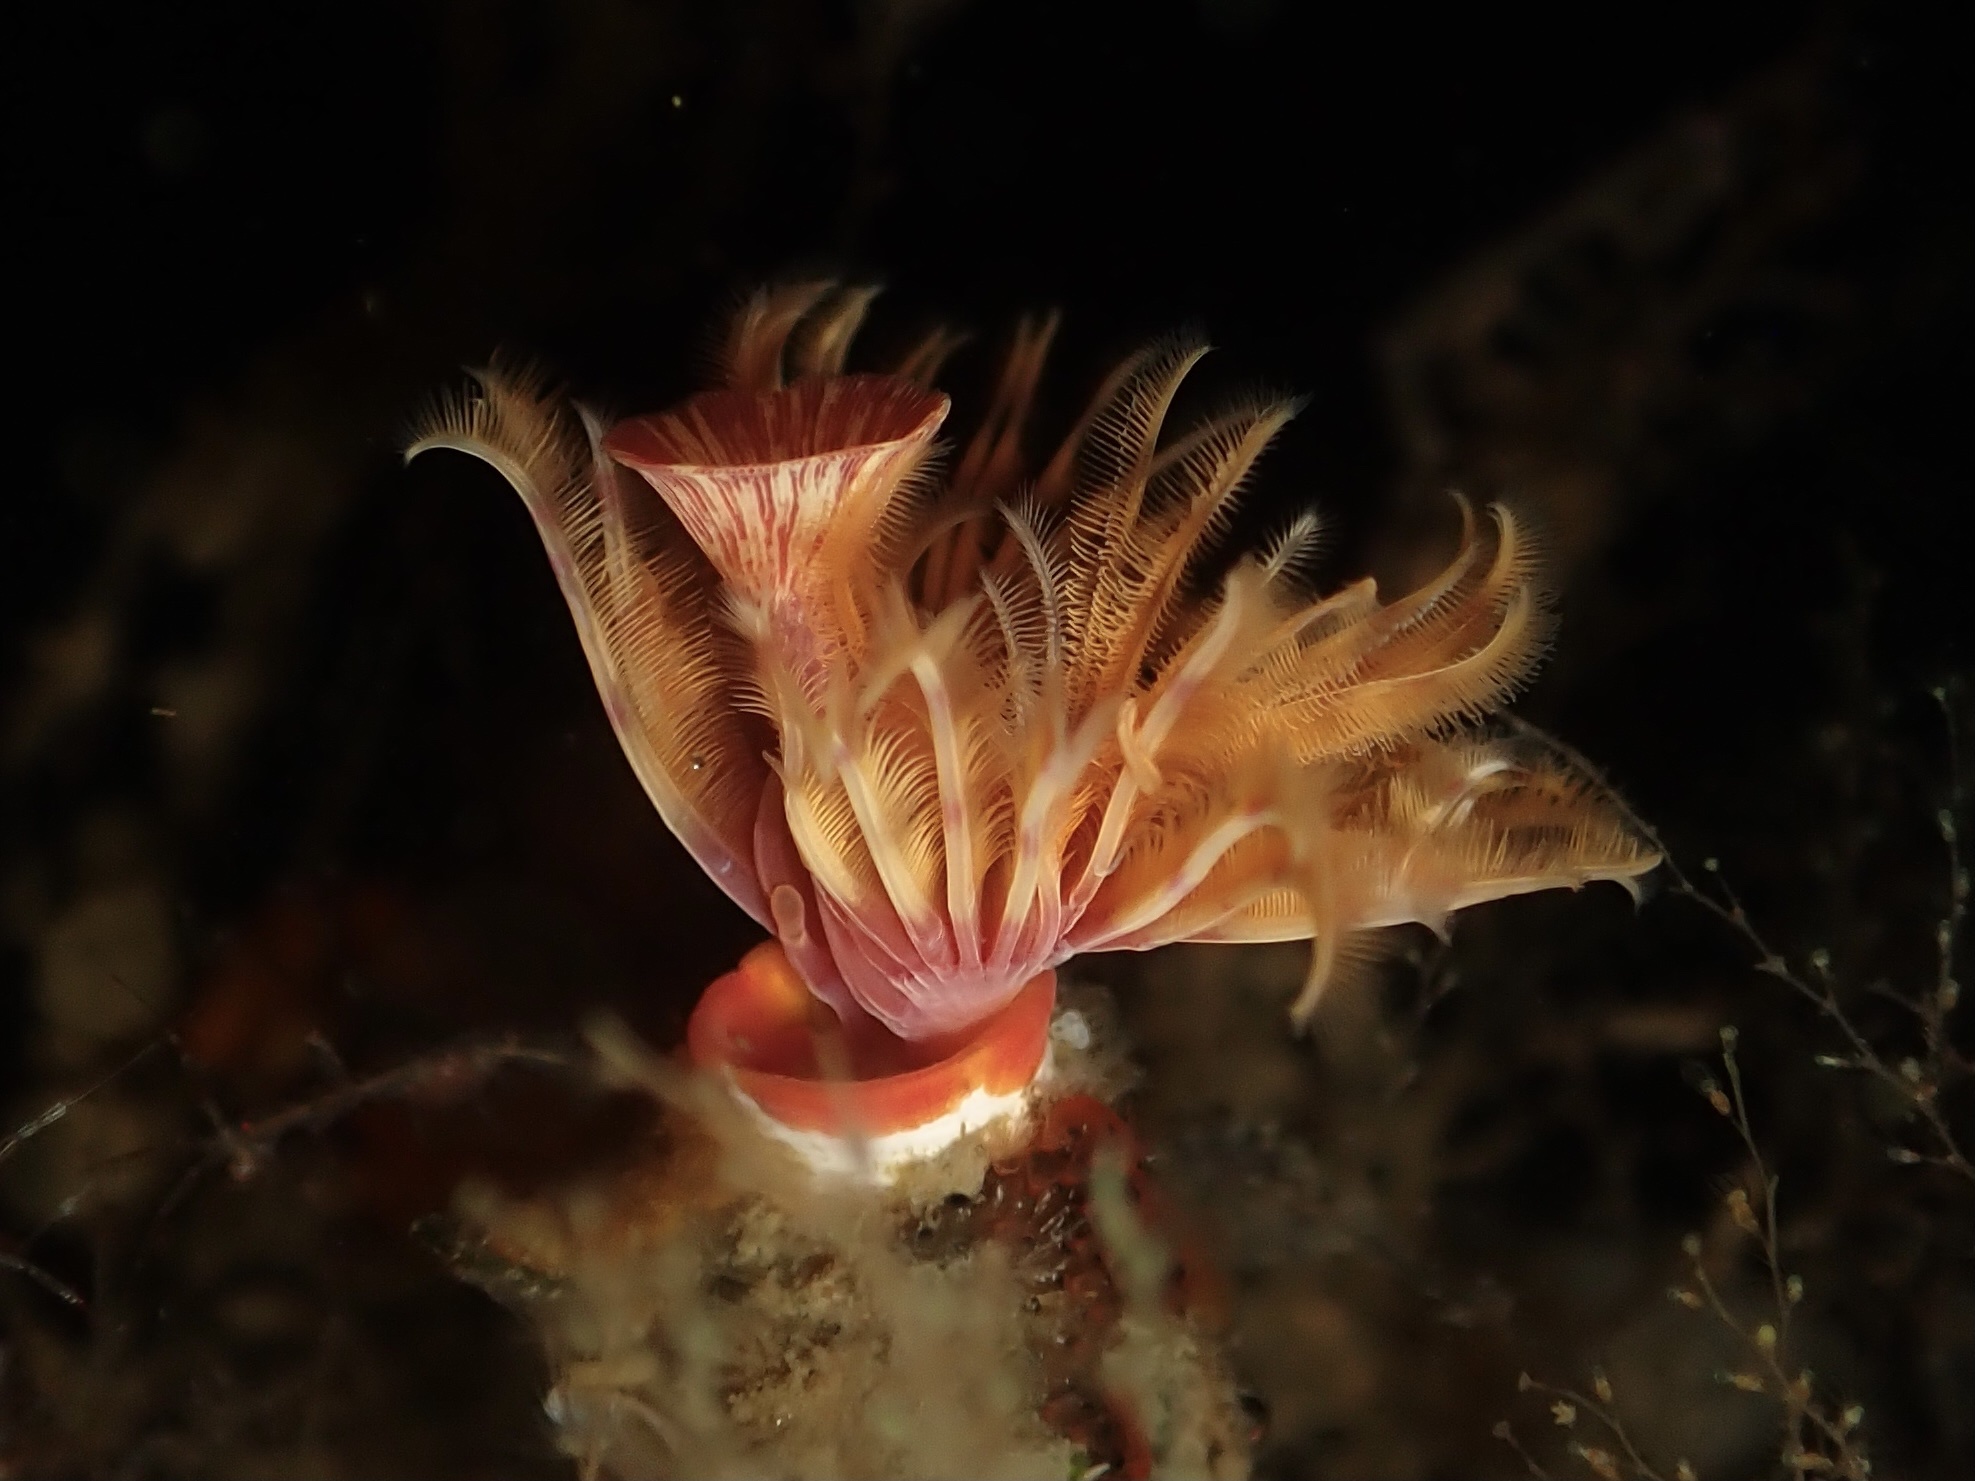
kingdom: Animalia
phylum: Annelida
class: Polychaeta
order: Sabellida
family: Serpulidae
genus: Serpula
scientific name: Serpula columbiana
